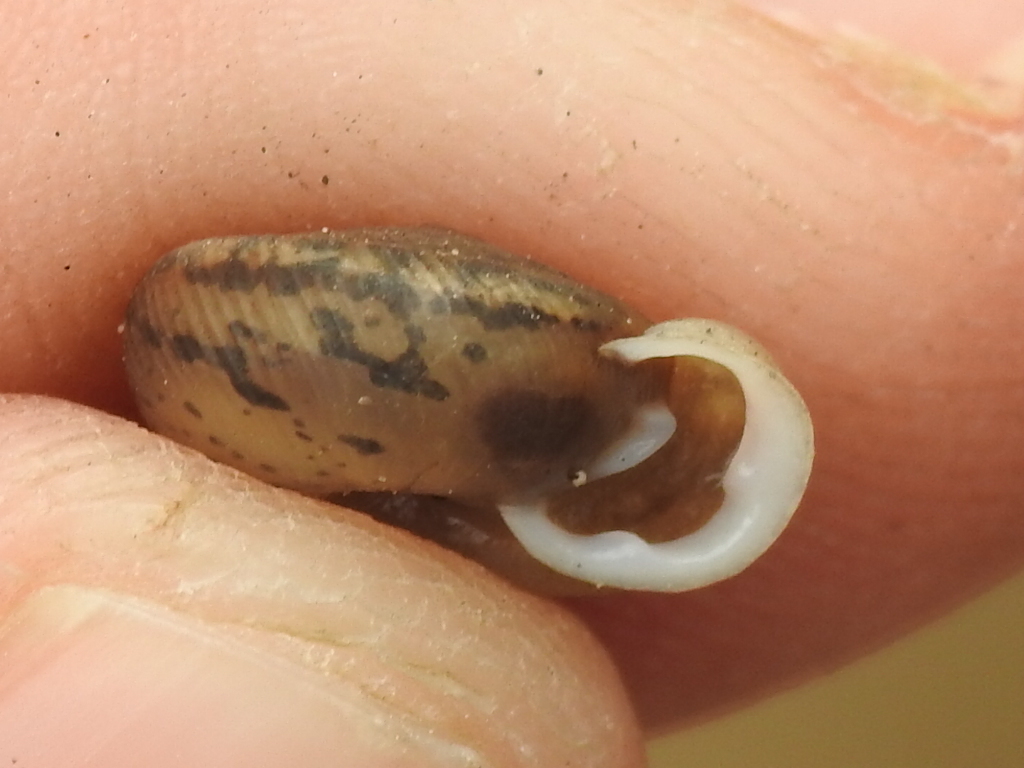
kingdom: Animalia
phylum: Mollusca
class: Gastropoda
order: Stylommatophora
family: Polygyridae
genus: Linisa
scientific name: Linisa texasiana
